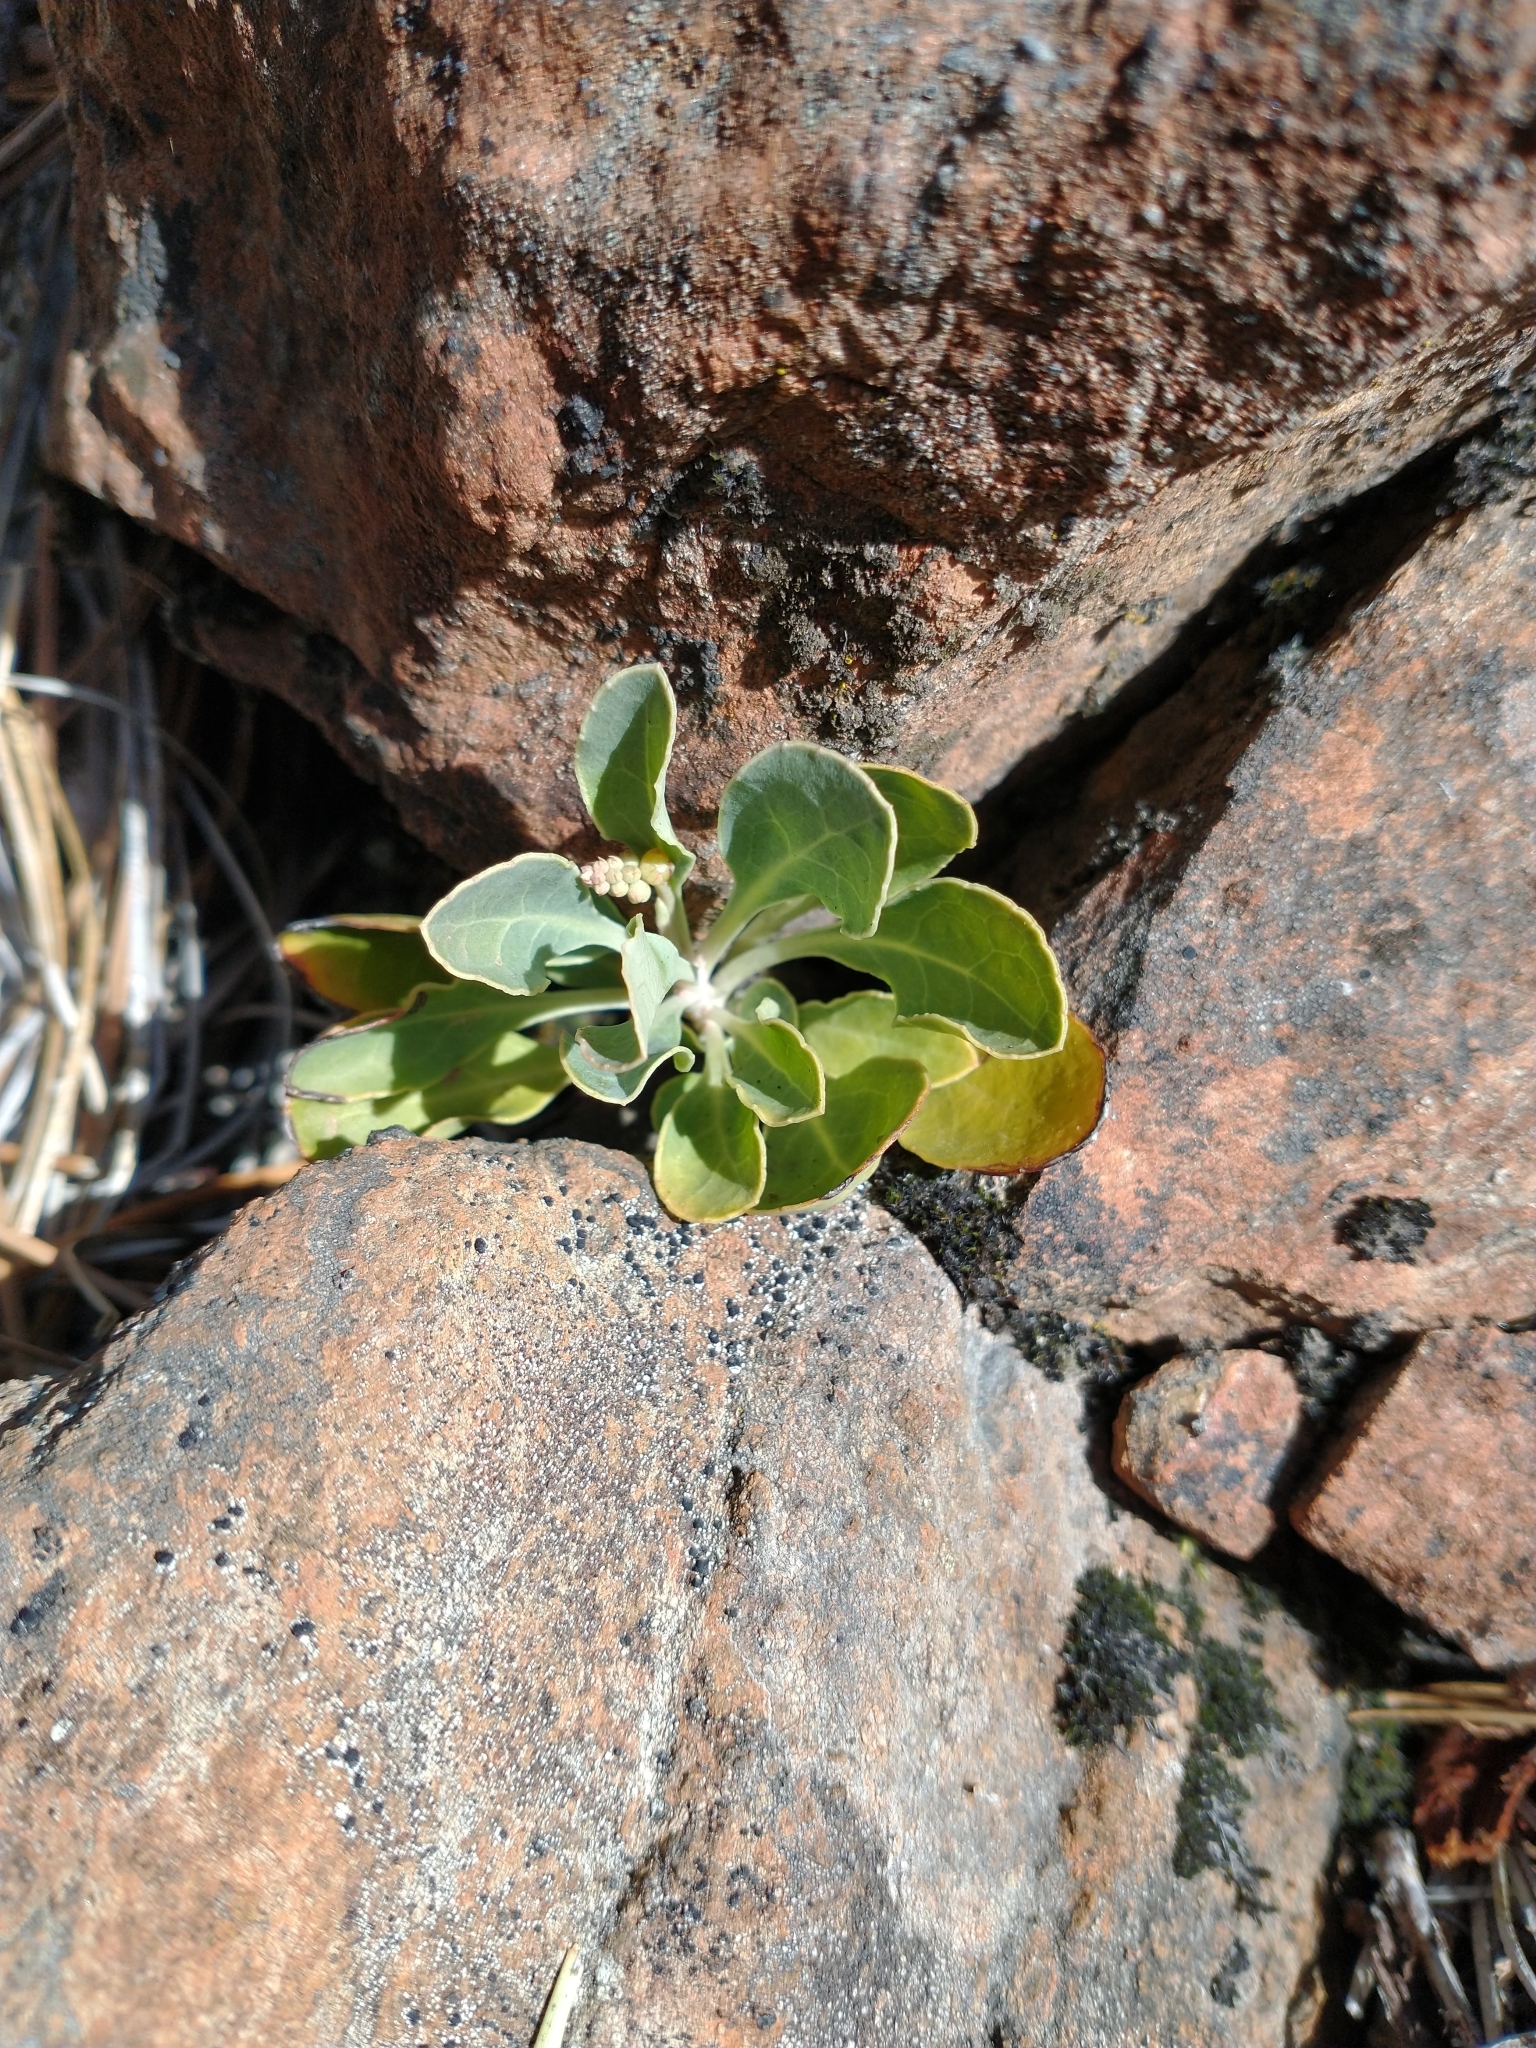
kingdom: Plantae
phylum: Tracheophyta
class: Magnoliopsida
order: Ericales
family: Ericaceae
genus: Pyrola
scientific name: Pyrola dentata
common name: Tooth-leaved wintergreen
